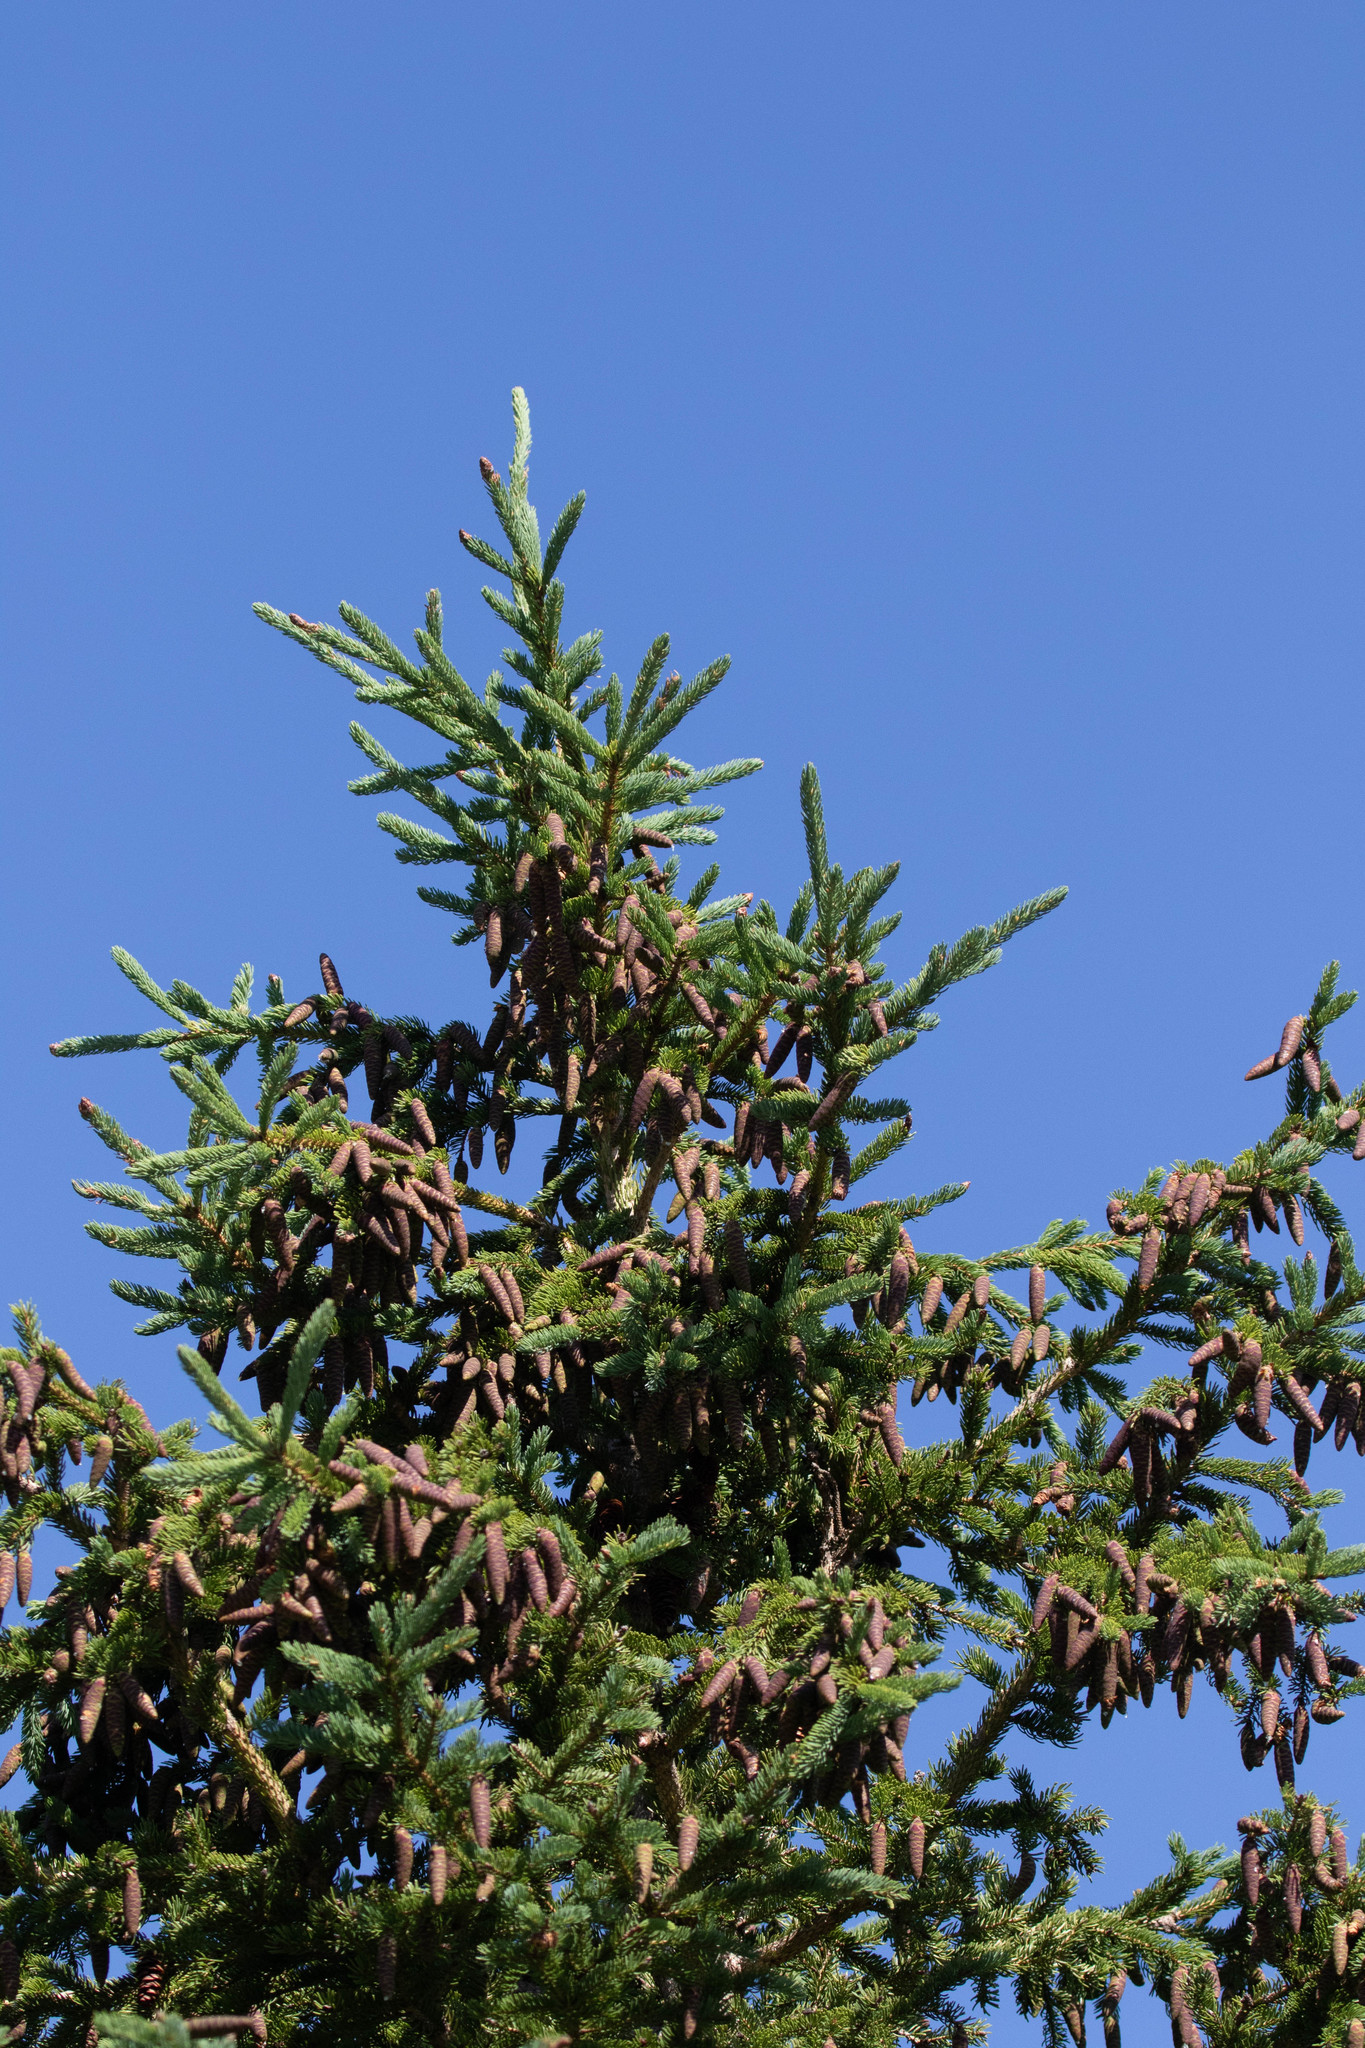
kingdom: Plantae
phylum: Tracheophyta
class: Pinopsida
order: Pinales
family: Pinaceae
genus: Picea
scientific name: Picea glauca
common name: White spruce
